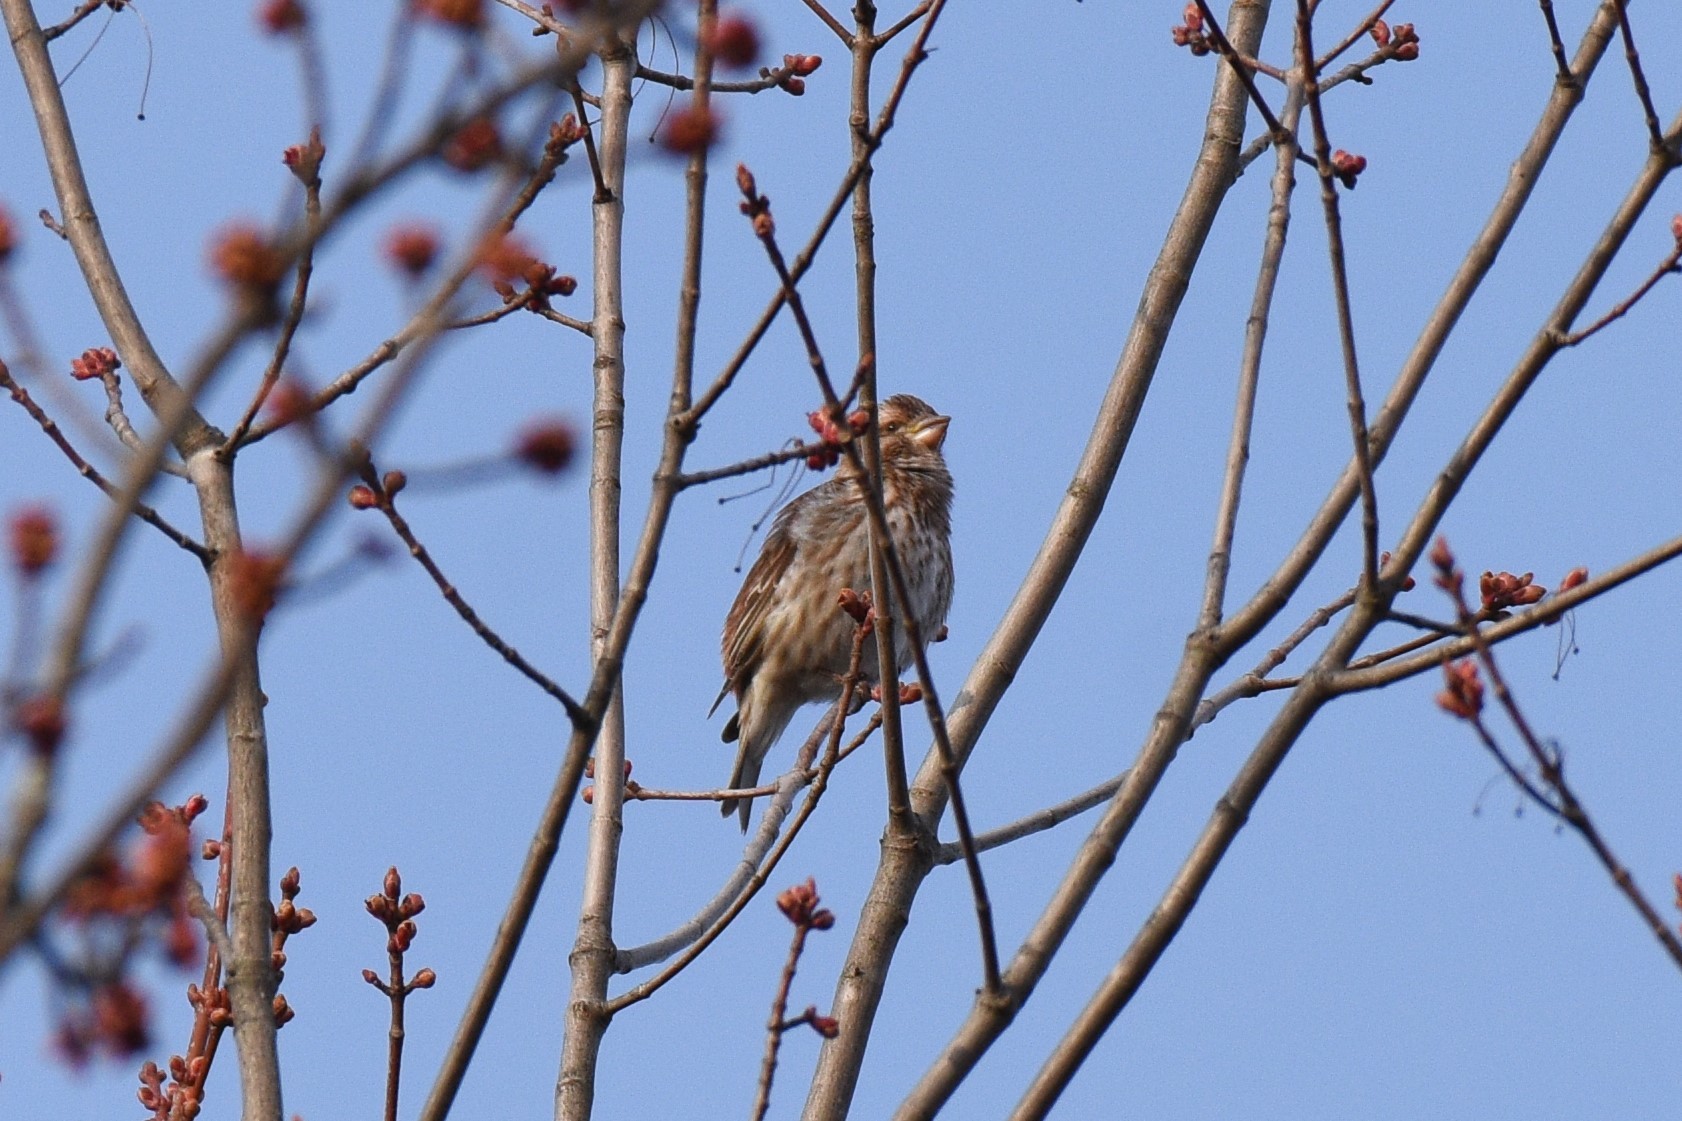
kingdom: Animalia
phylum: Chordata
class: Aves
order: Passeriformes
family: Fringillidae
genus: Haemorhous
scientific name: Haemorhous purpureus
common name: Purple finch
